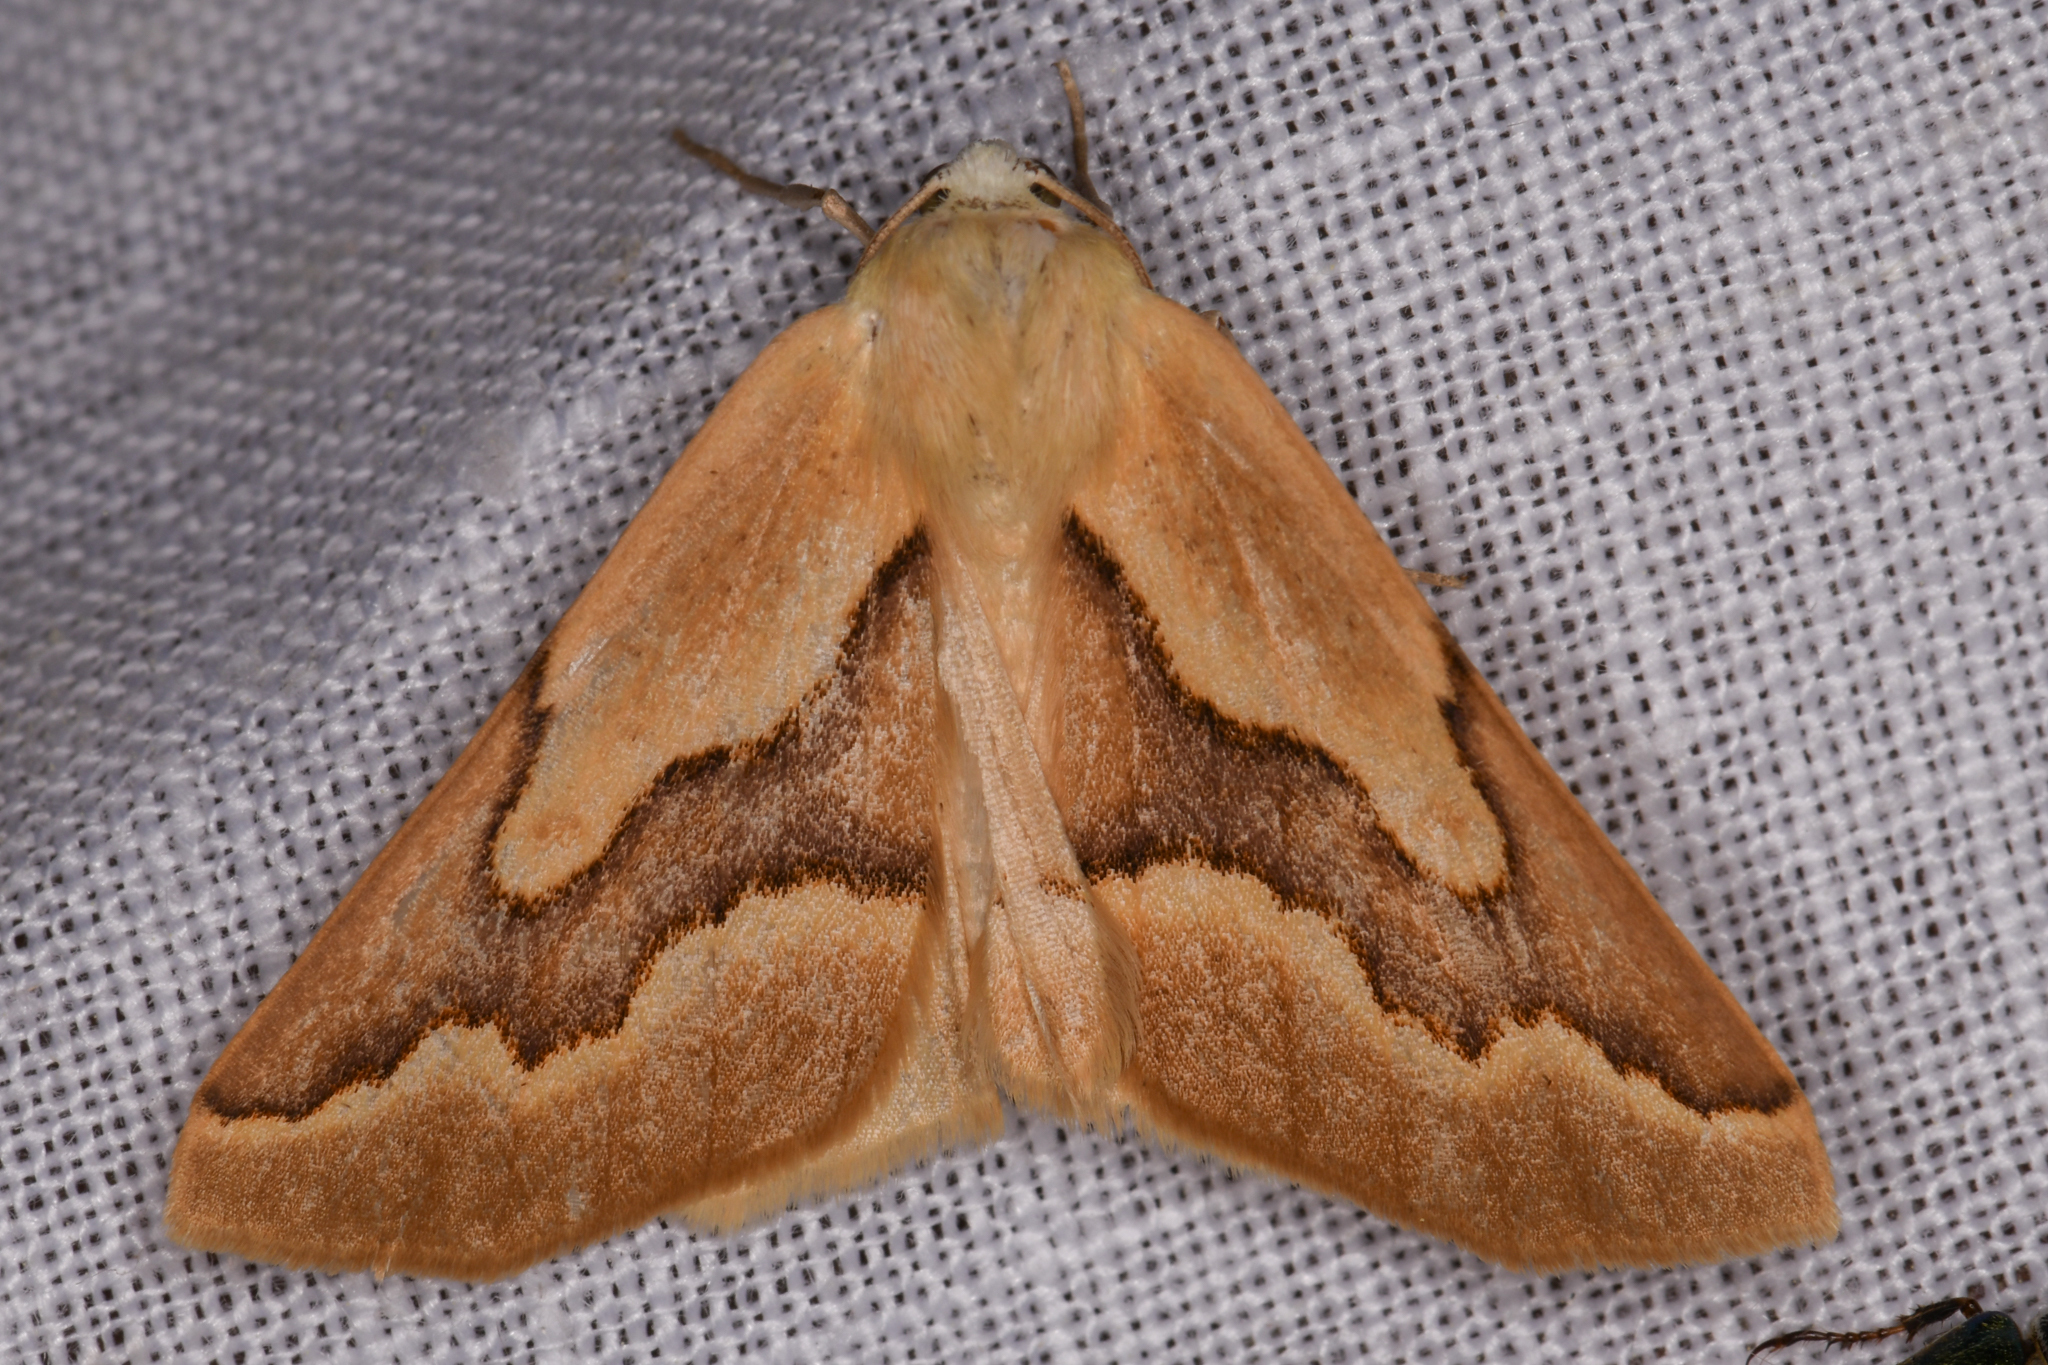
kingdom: Animalia
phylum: Arthropoda
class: Insecta
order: Lepidoptera
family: Geometridae
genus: Sabulodes
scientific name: Sabulodes edwardsata
